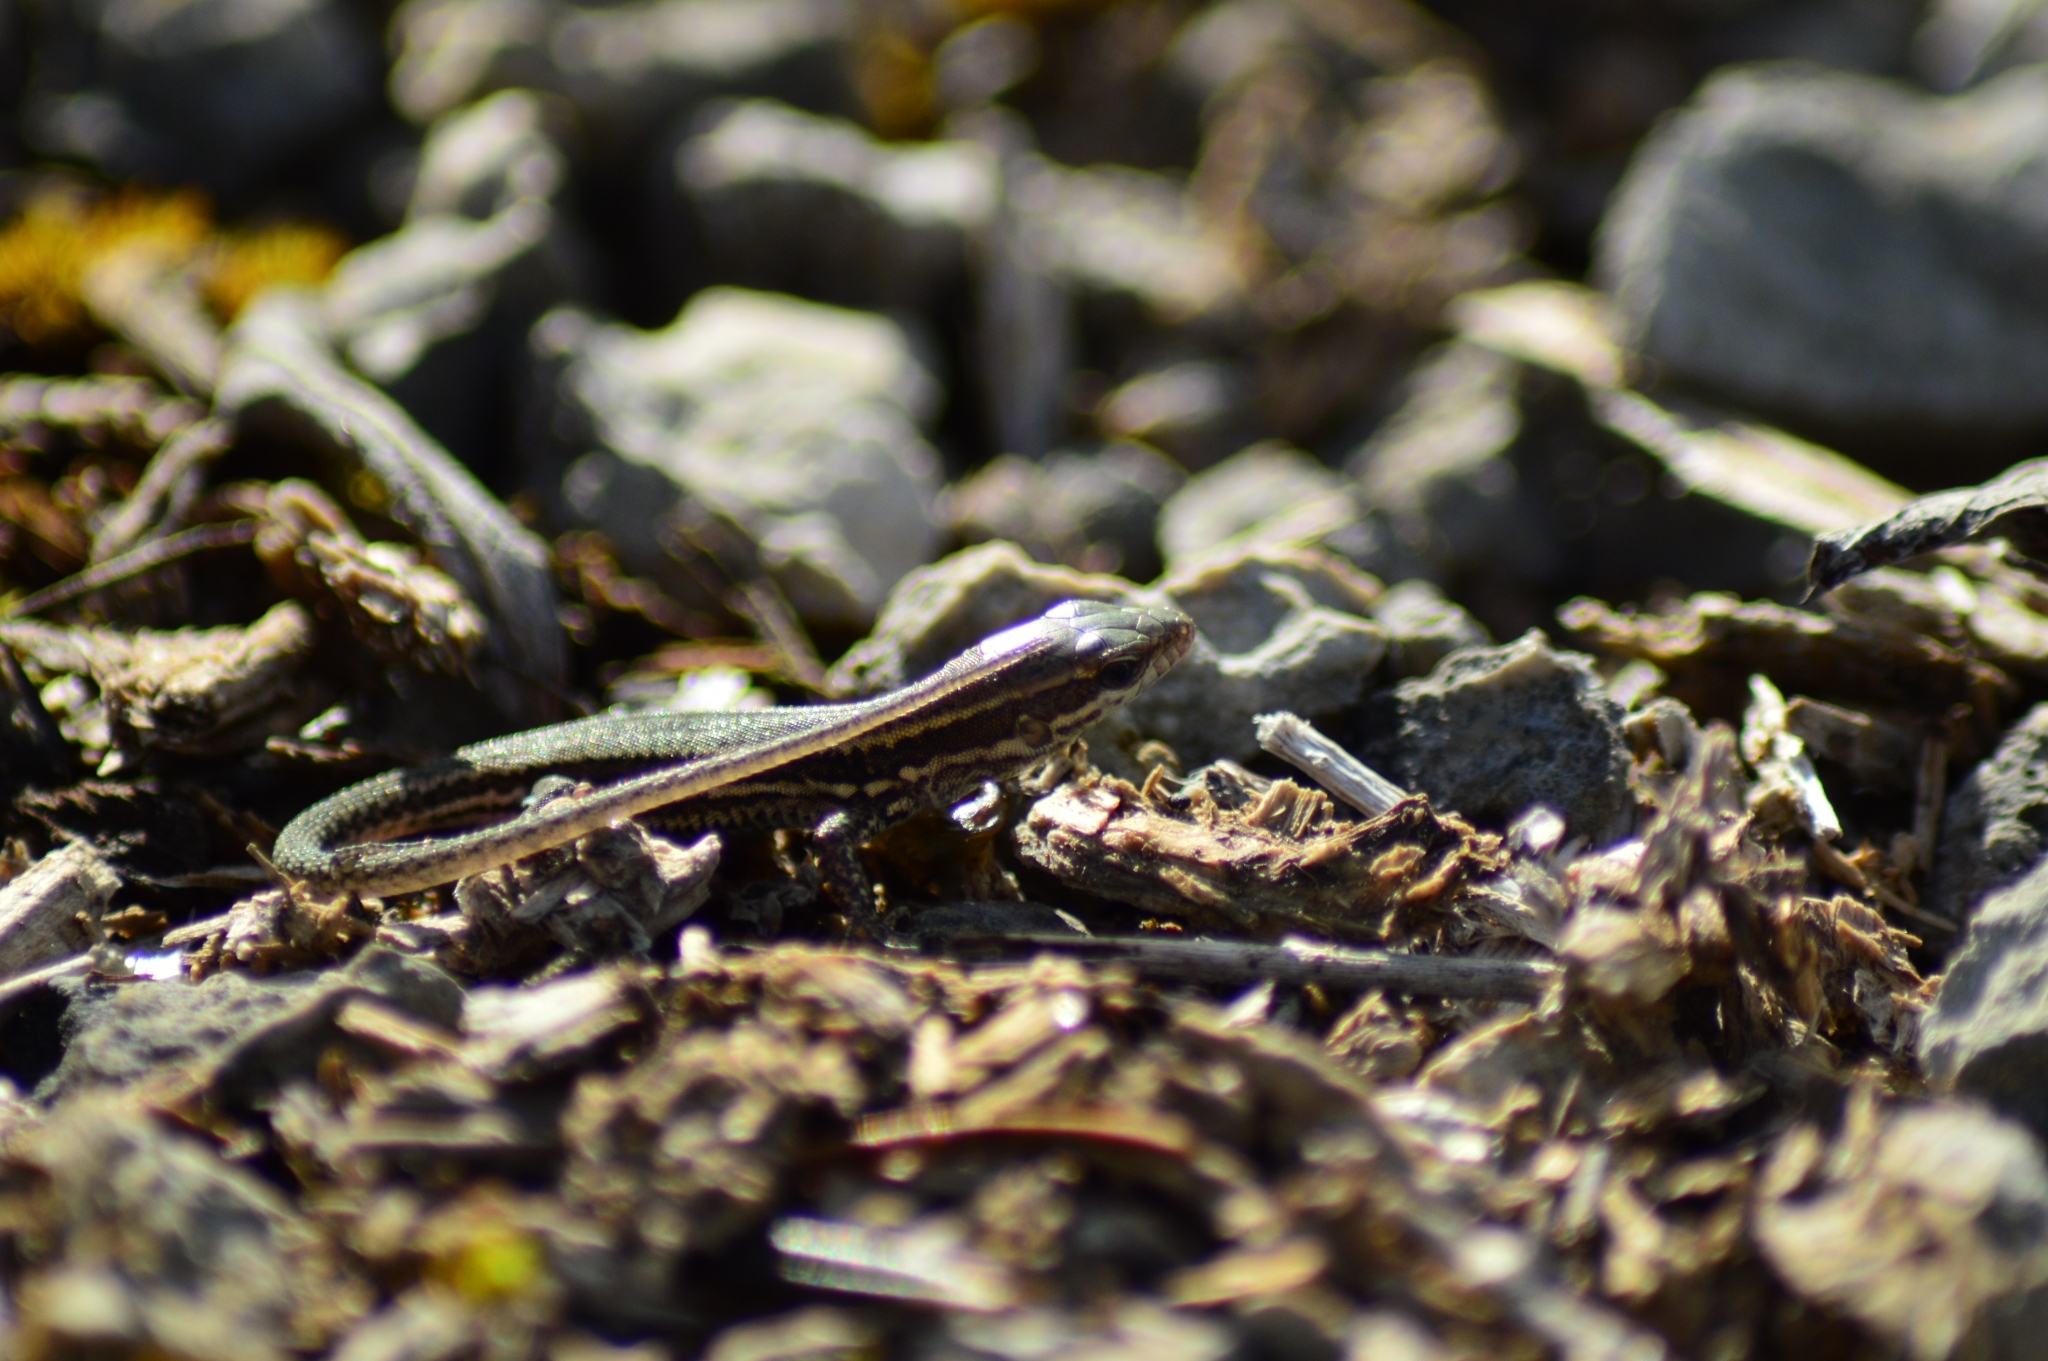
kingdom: Animalia
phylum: Chordata
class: Squamata
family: Lacertidae
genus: Podarcis
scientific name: Podarcis muralis
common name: Common wall lizard
